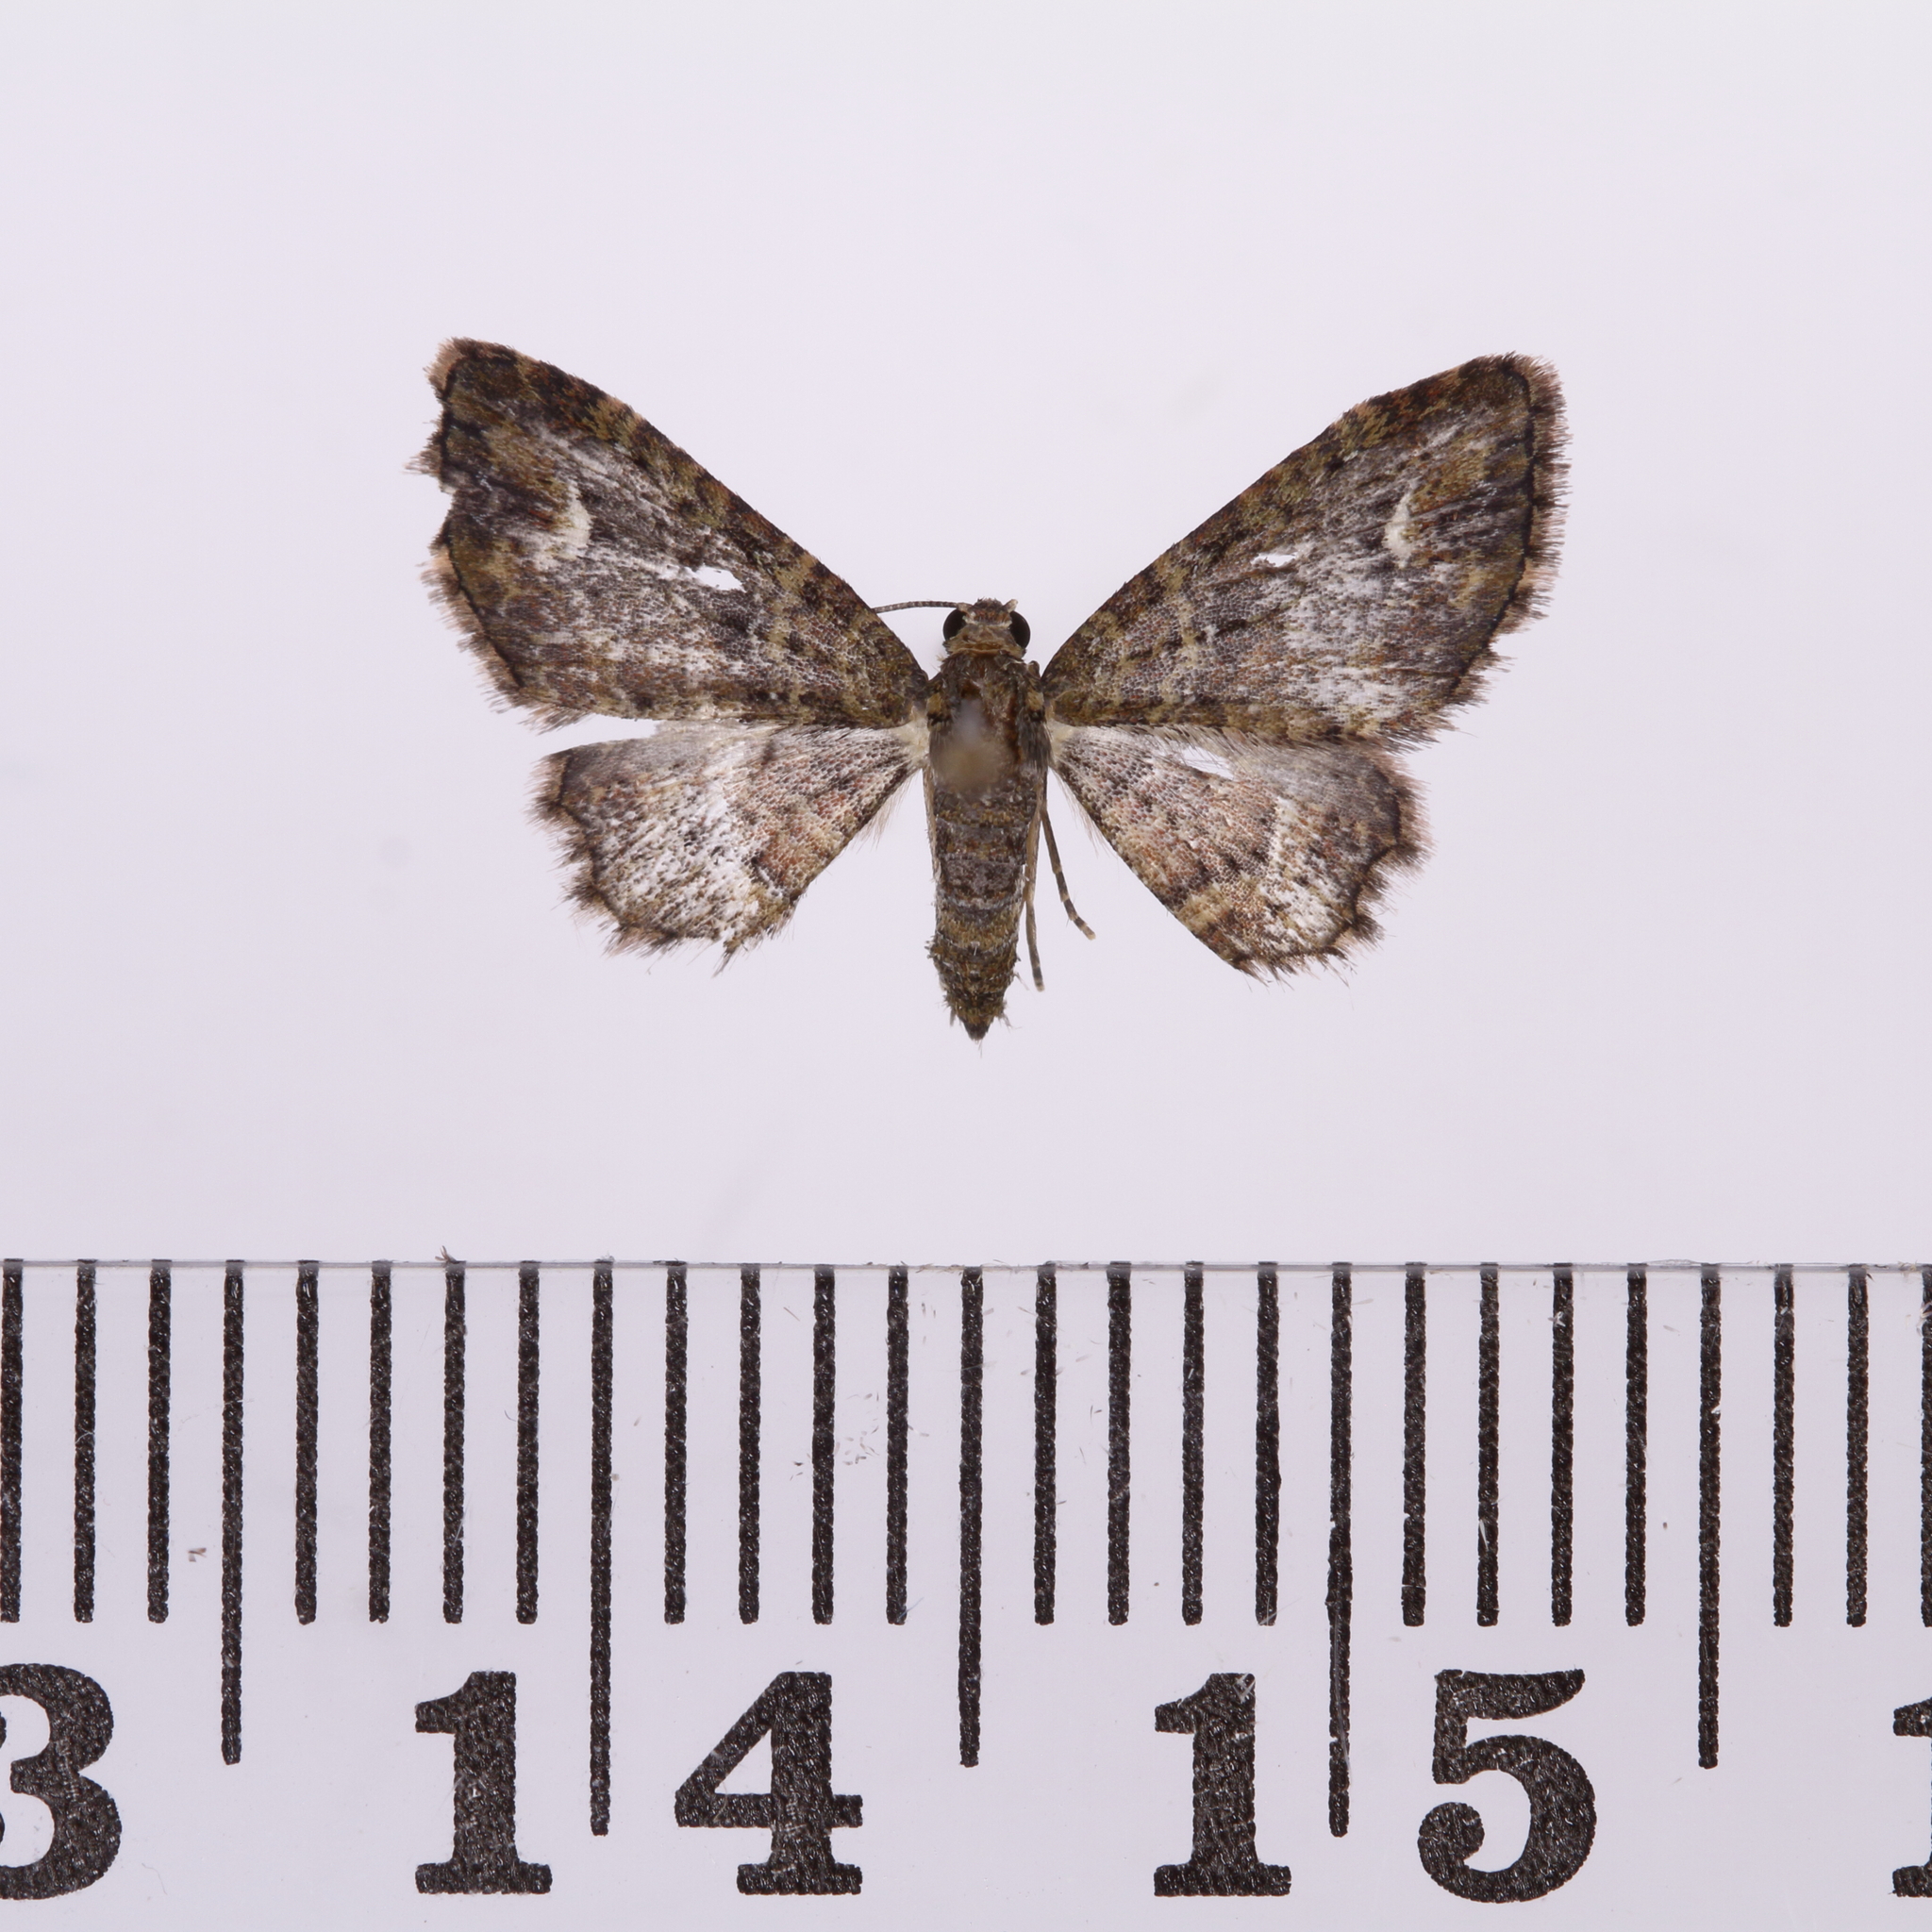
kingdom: Animalia
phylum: Arthropoda
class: Insecta
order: Lepidoptera
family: Geometridae
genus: Pasiphilodes
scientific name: Pasiphilodes testulata
